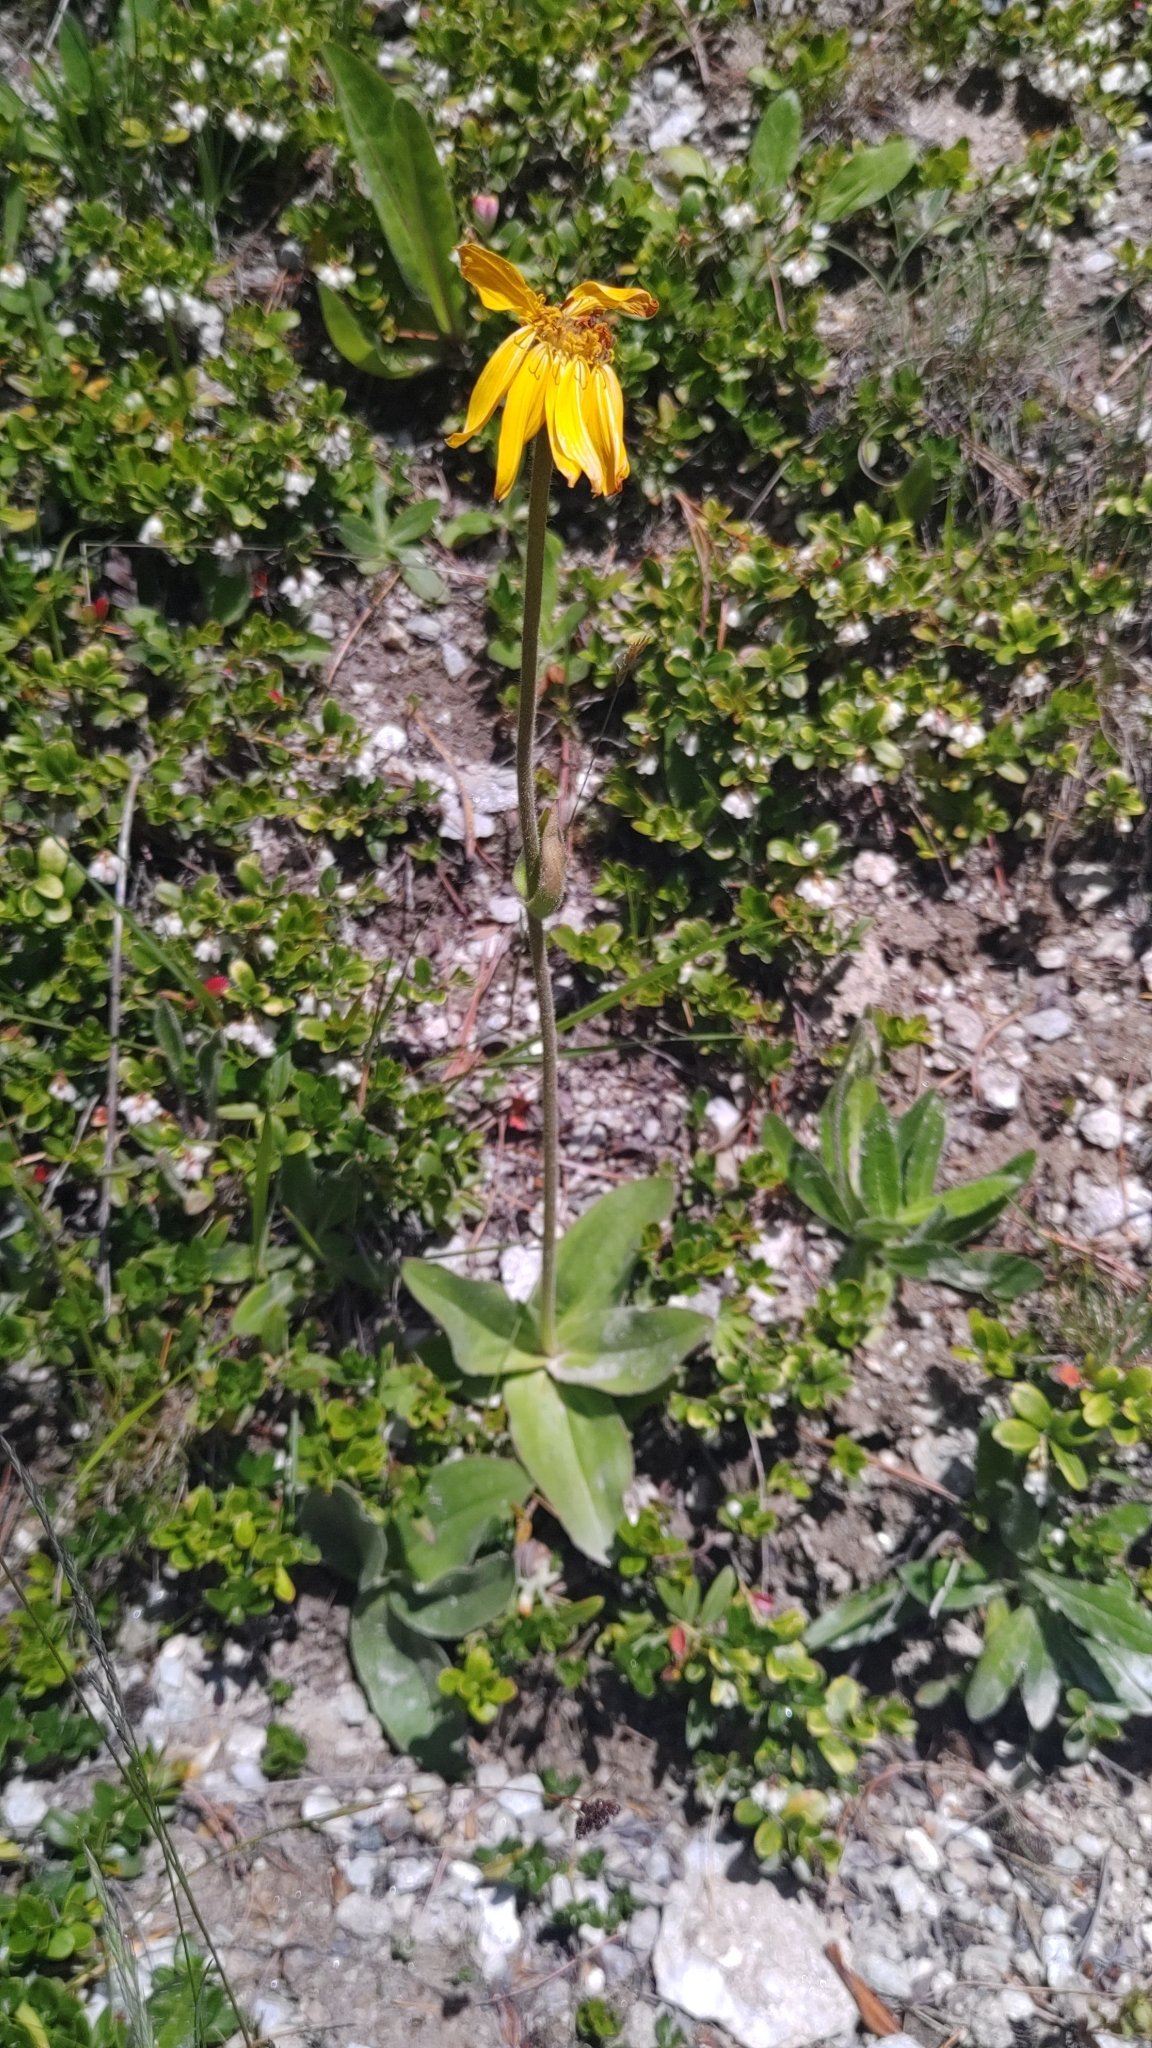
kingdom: Plantae
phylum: Tracheophyta
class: Magnoliopsida
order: Asterales
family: Asteraceae
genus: Arnica
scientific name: Arnica montana
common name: Leopard's bane
